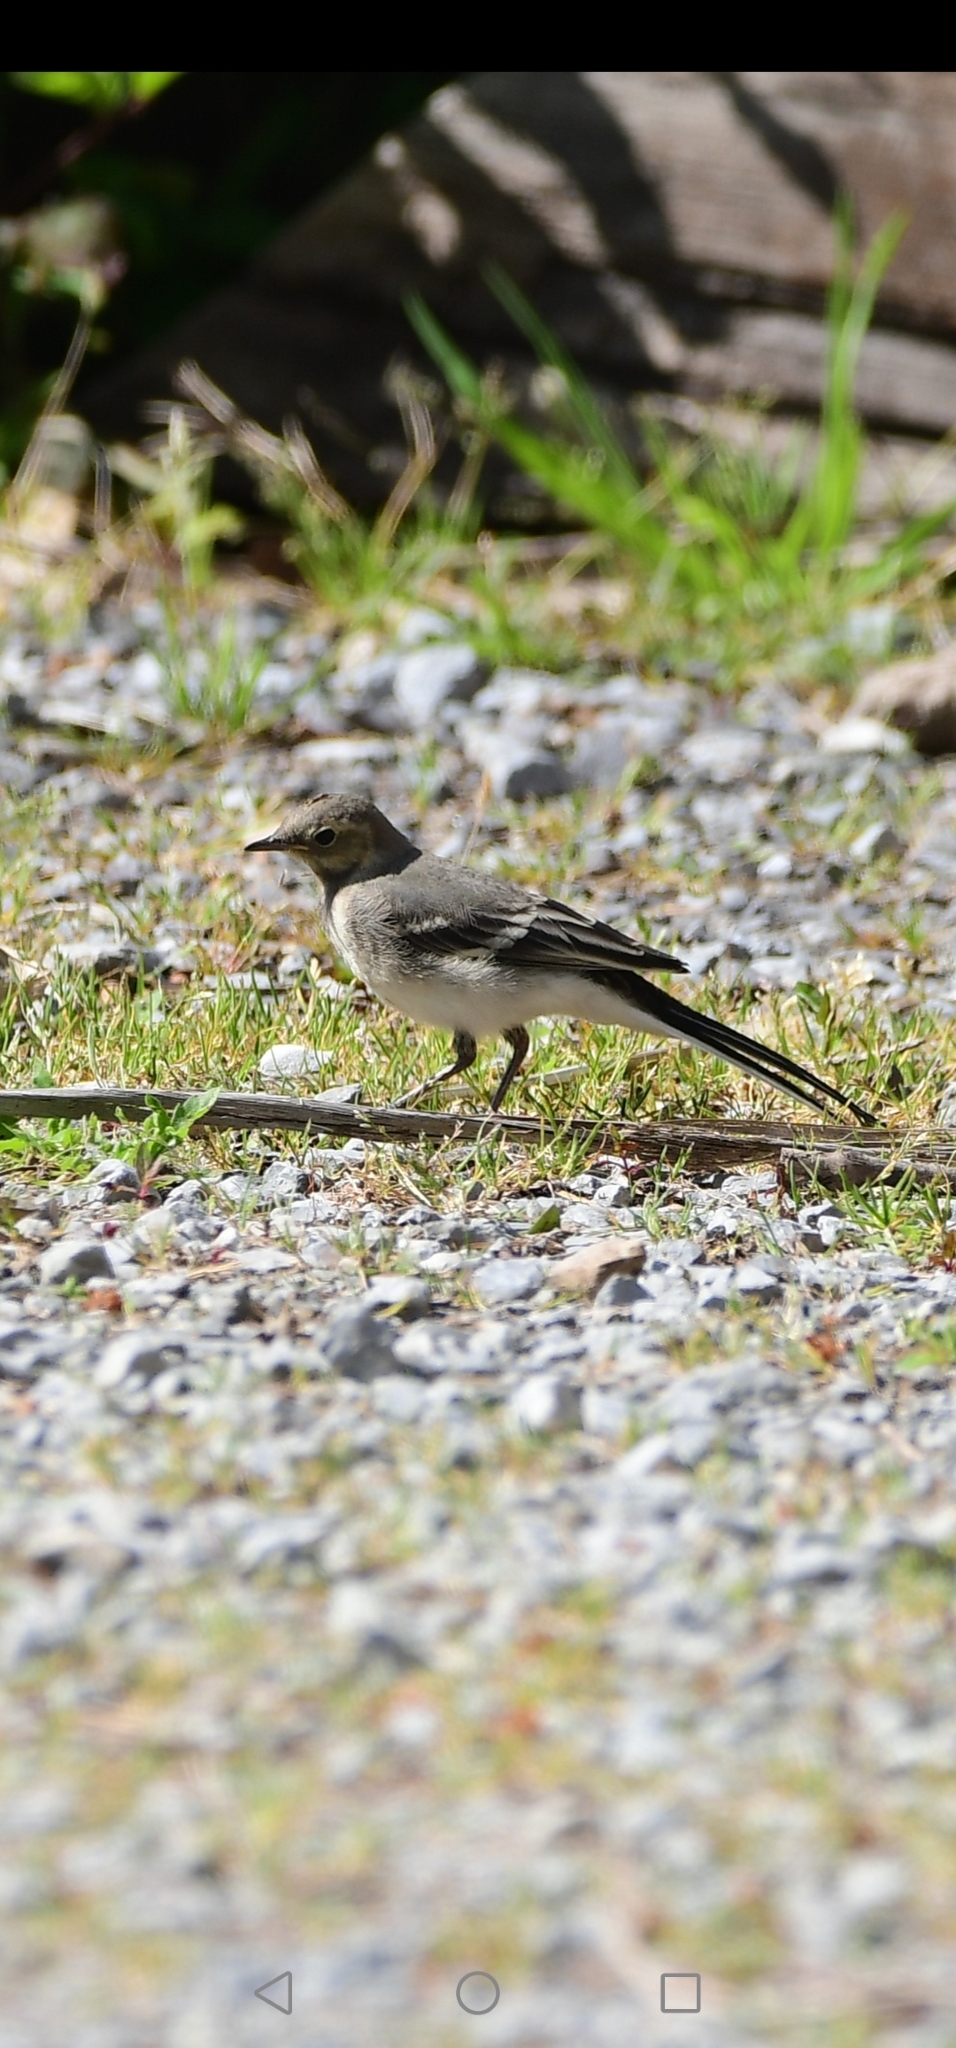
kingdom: Animalia
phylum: Chordata
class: Aves
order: Passeriformes
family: Motacillidae
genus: Motacilla
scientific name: Motacilla alba
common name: White wagtail
